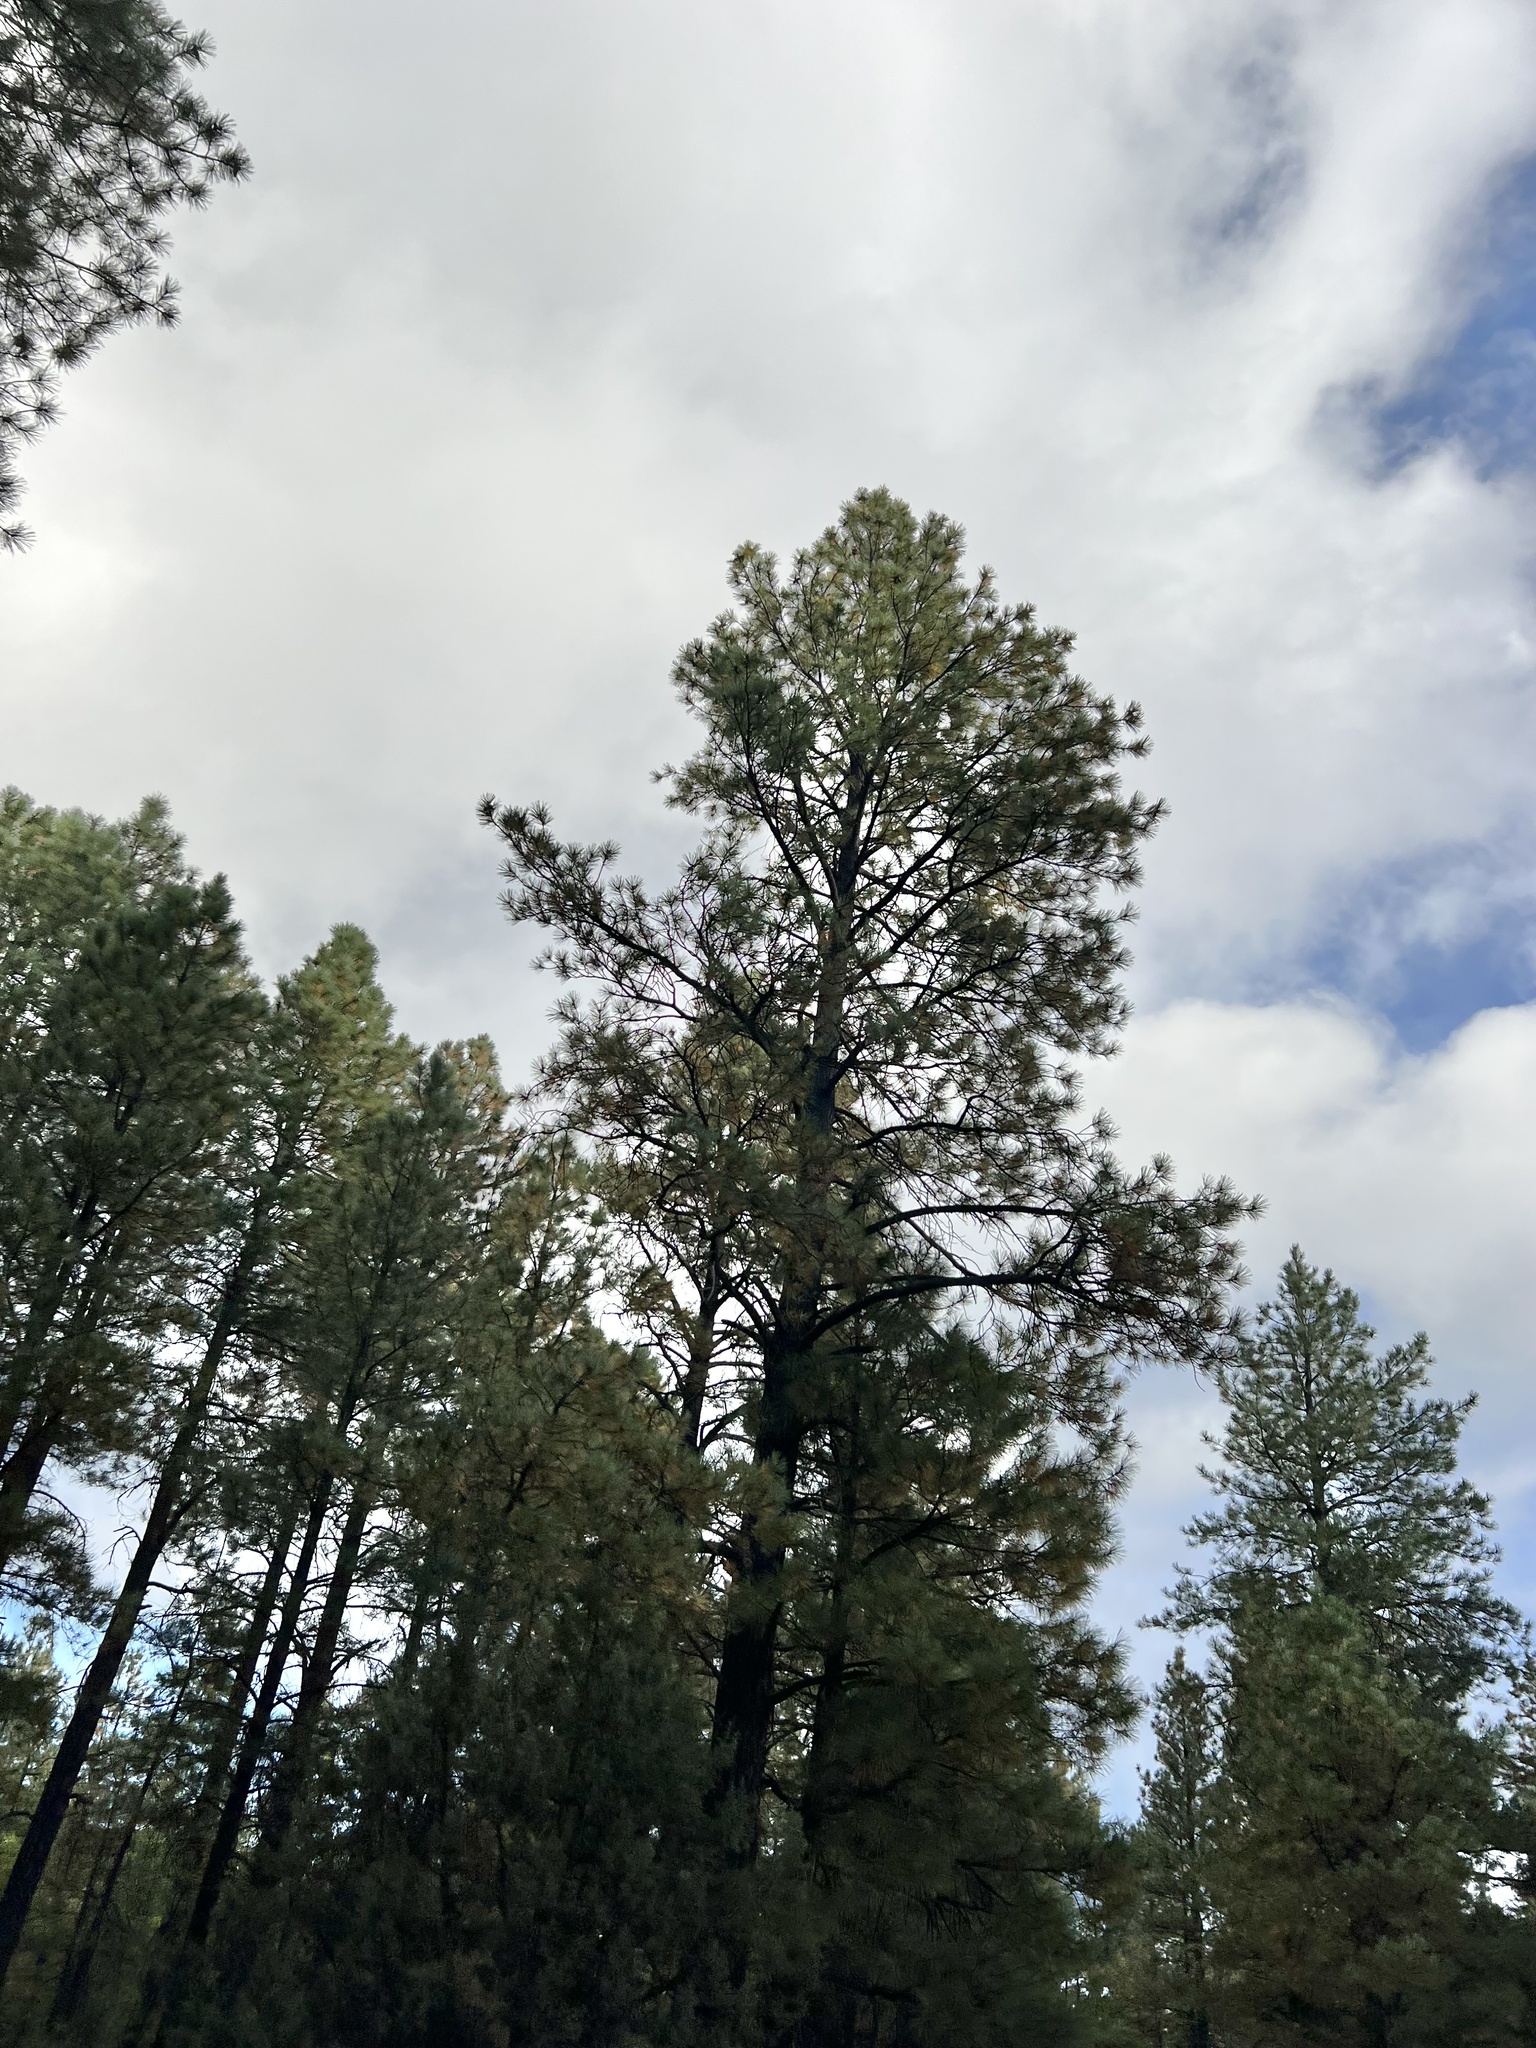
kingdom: Plantae
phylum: Tracheophyta
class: Pinopsida
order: Pinales
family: Pinaceae
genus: Pinus
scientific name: Pinus ponderosa
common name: Western yellow-pine
